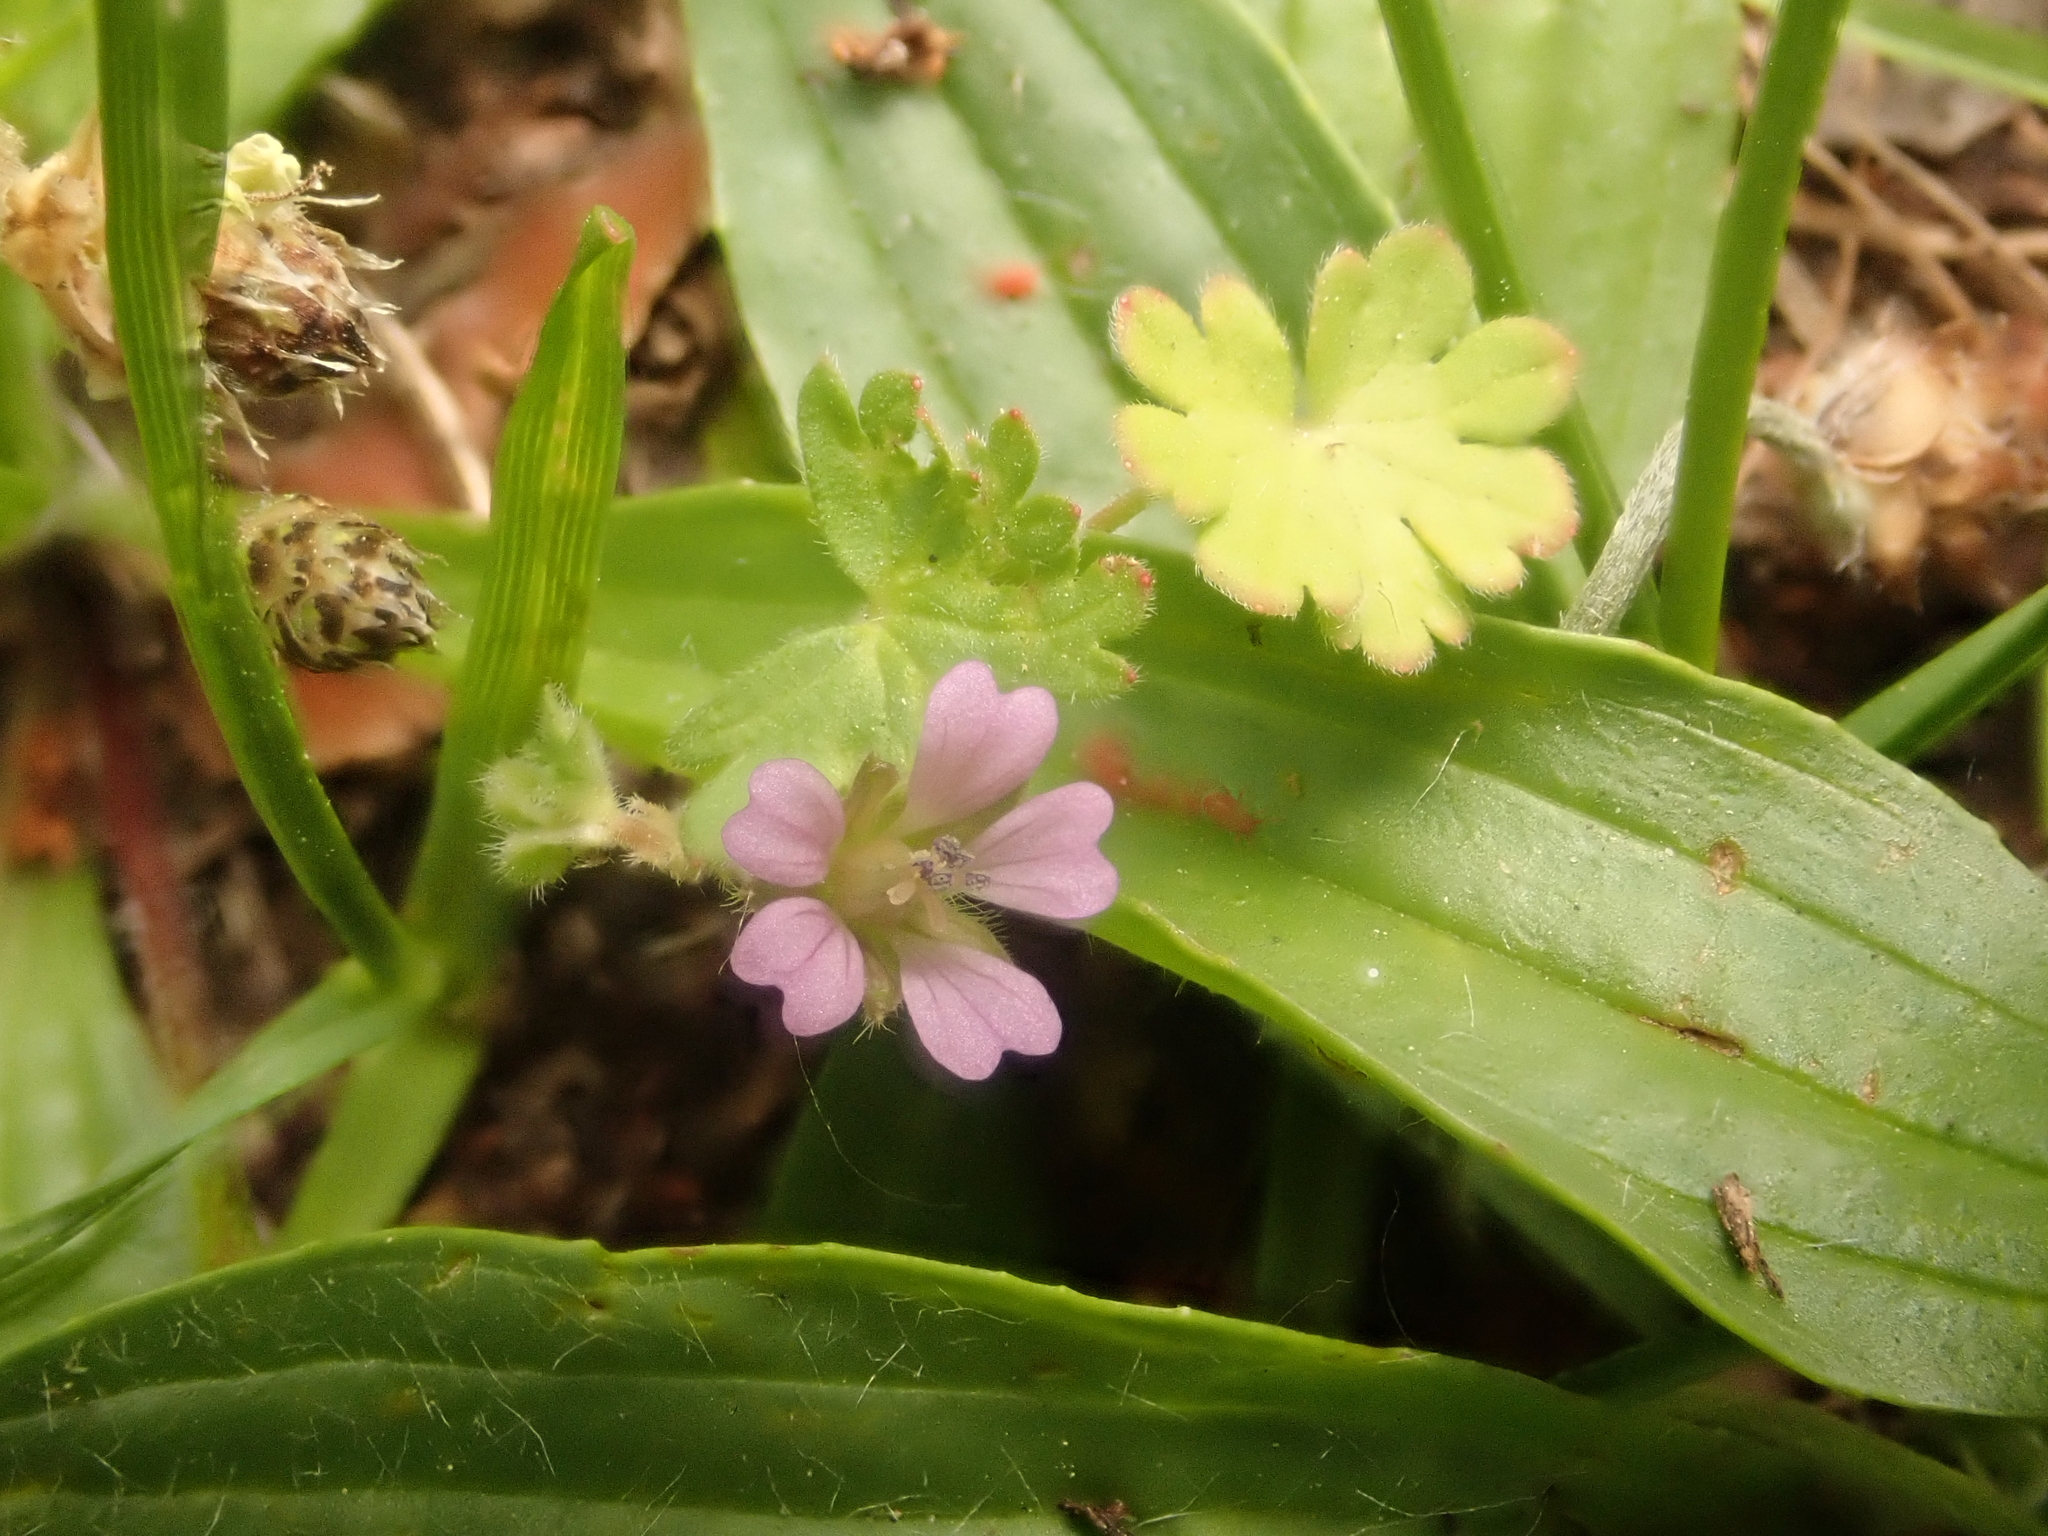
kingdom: Plantae
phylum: Tracheophyta
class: Magnoliopsida
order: Geraniales
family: Geraniaceae
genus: Geranium
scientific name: Geranium pusillum
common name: Small geranium
